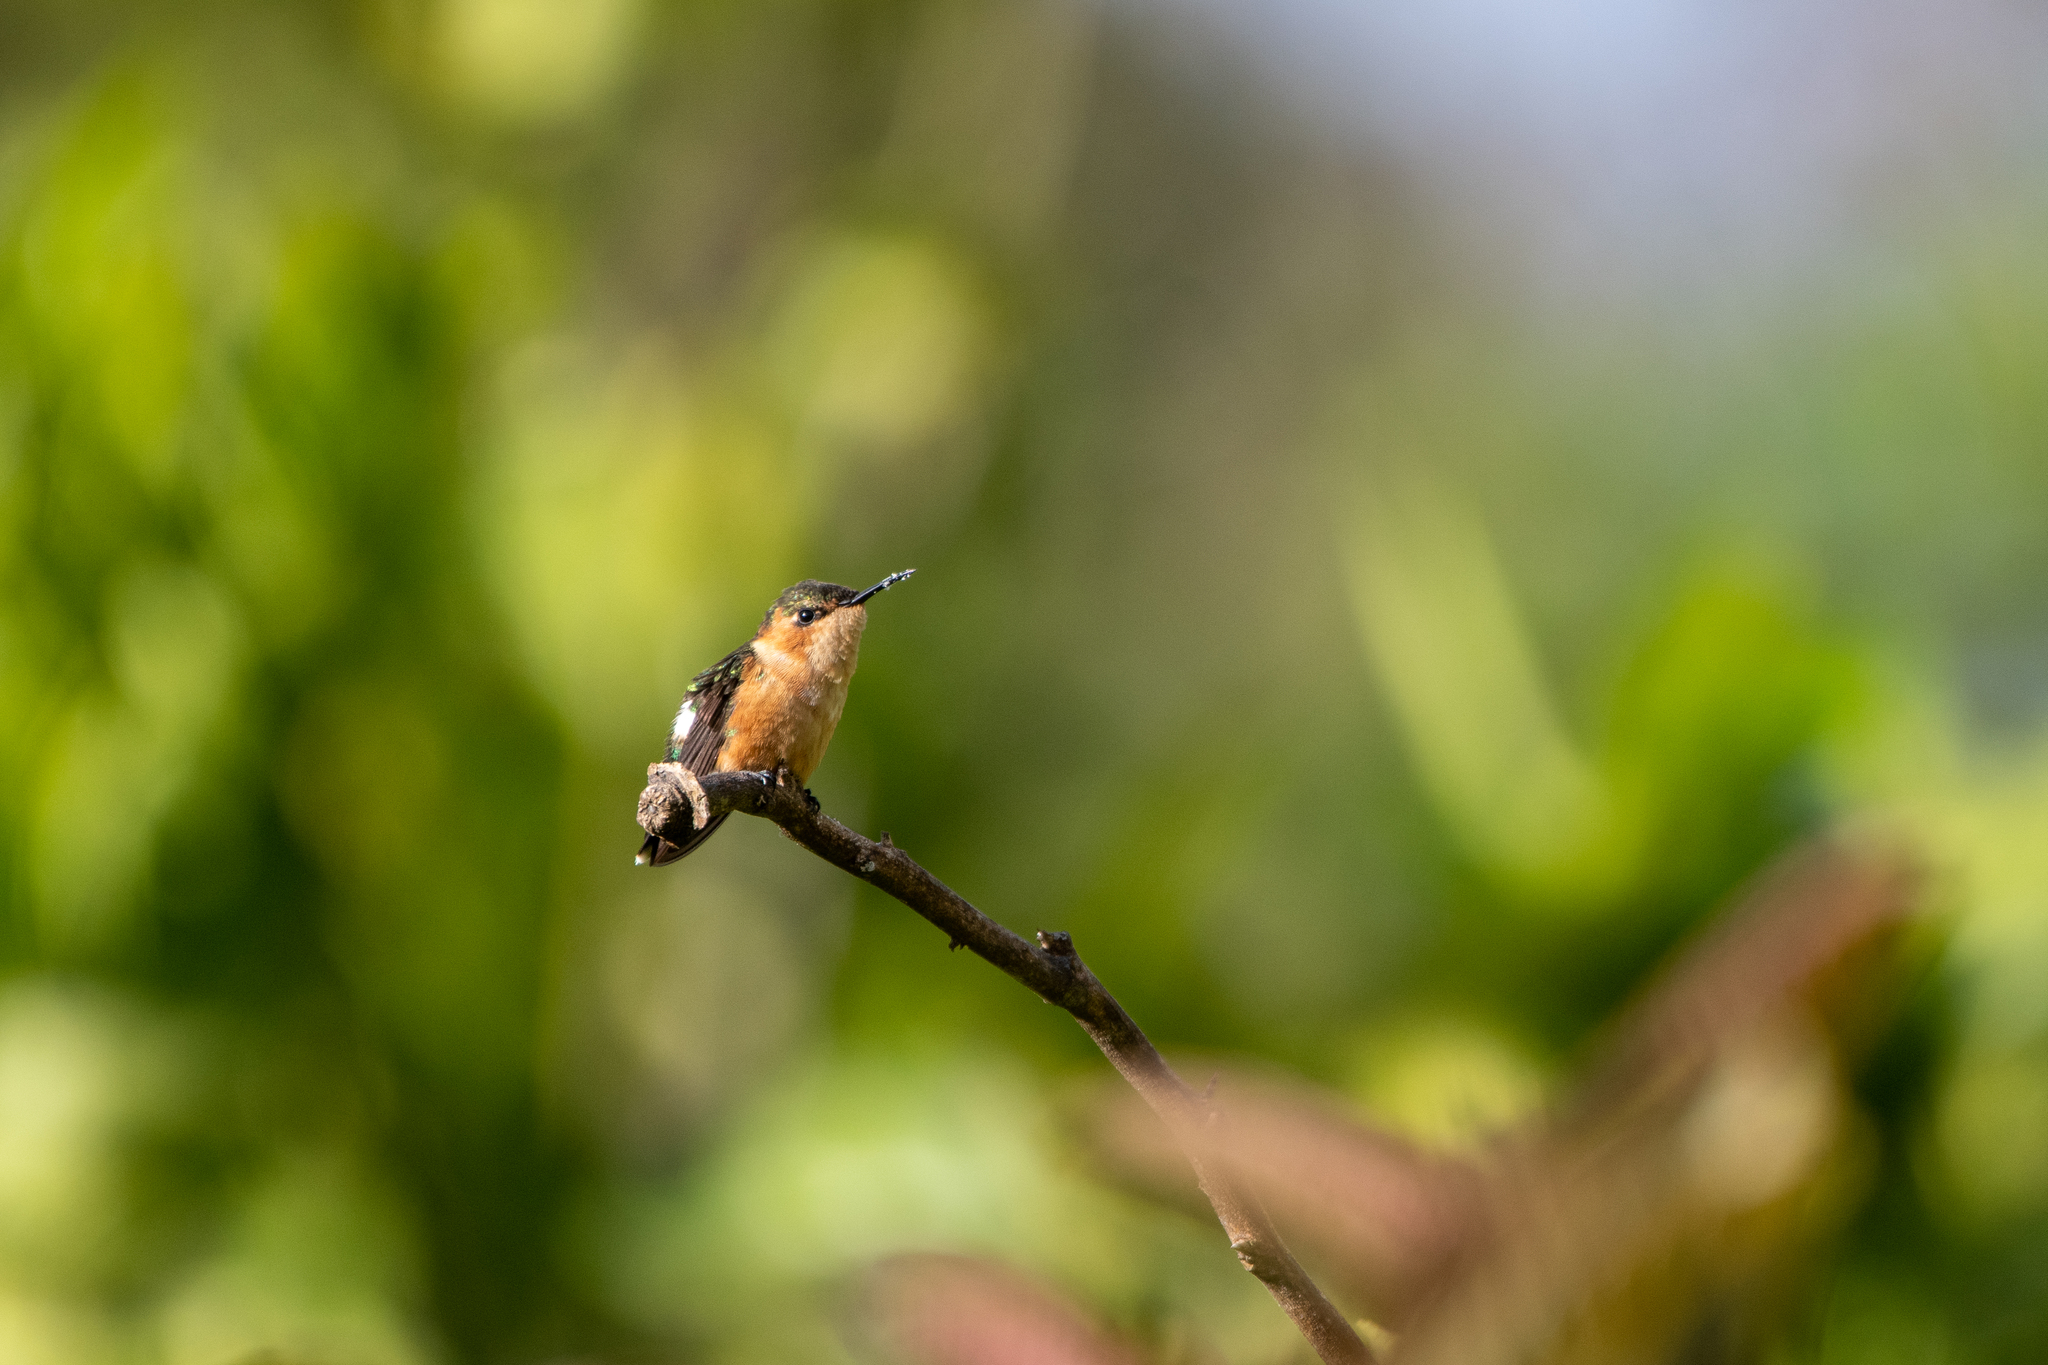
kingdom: Animalia
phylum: Chordata
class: Aves
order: Apodiformes
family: Trochilidae
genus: Tilmatura
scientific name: Tilmatura dupontii
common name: Sparkling-tailed woodstar
